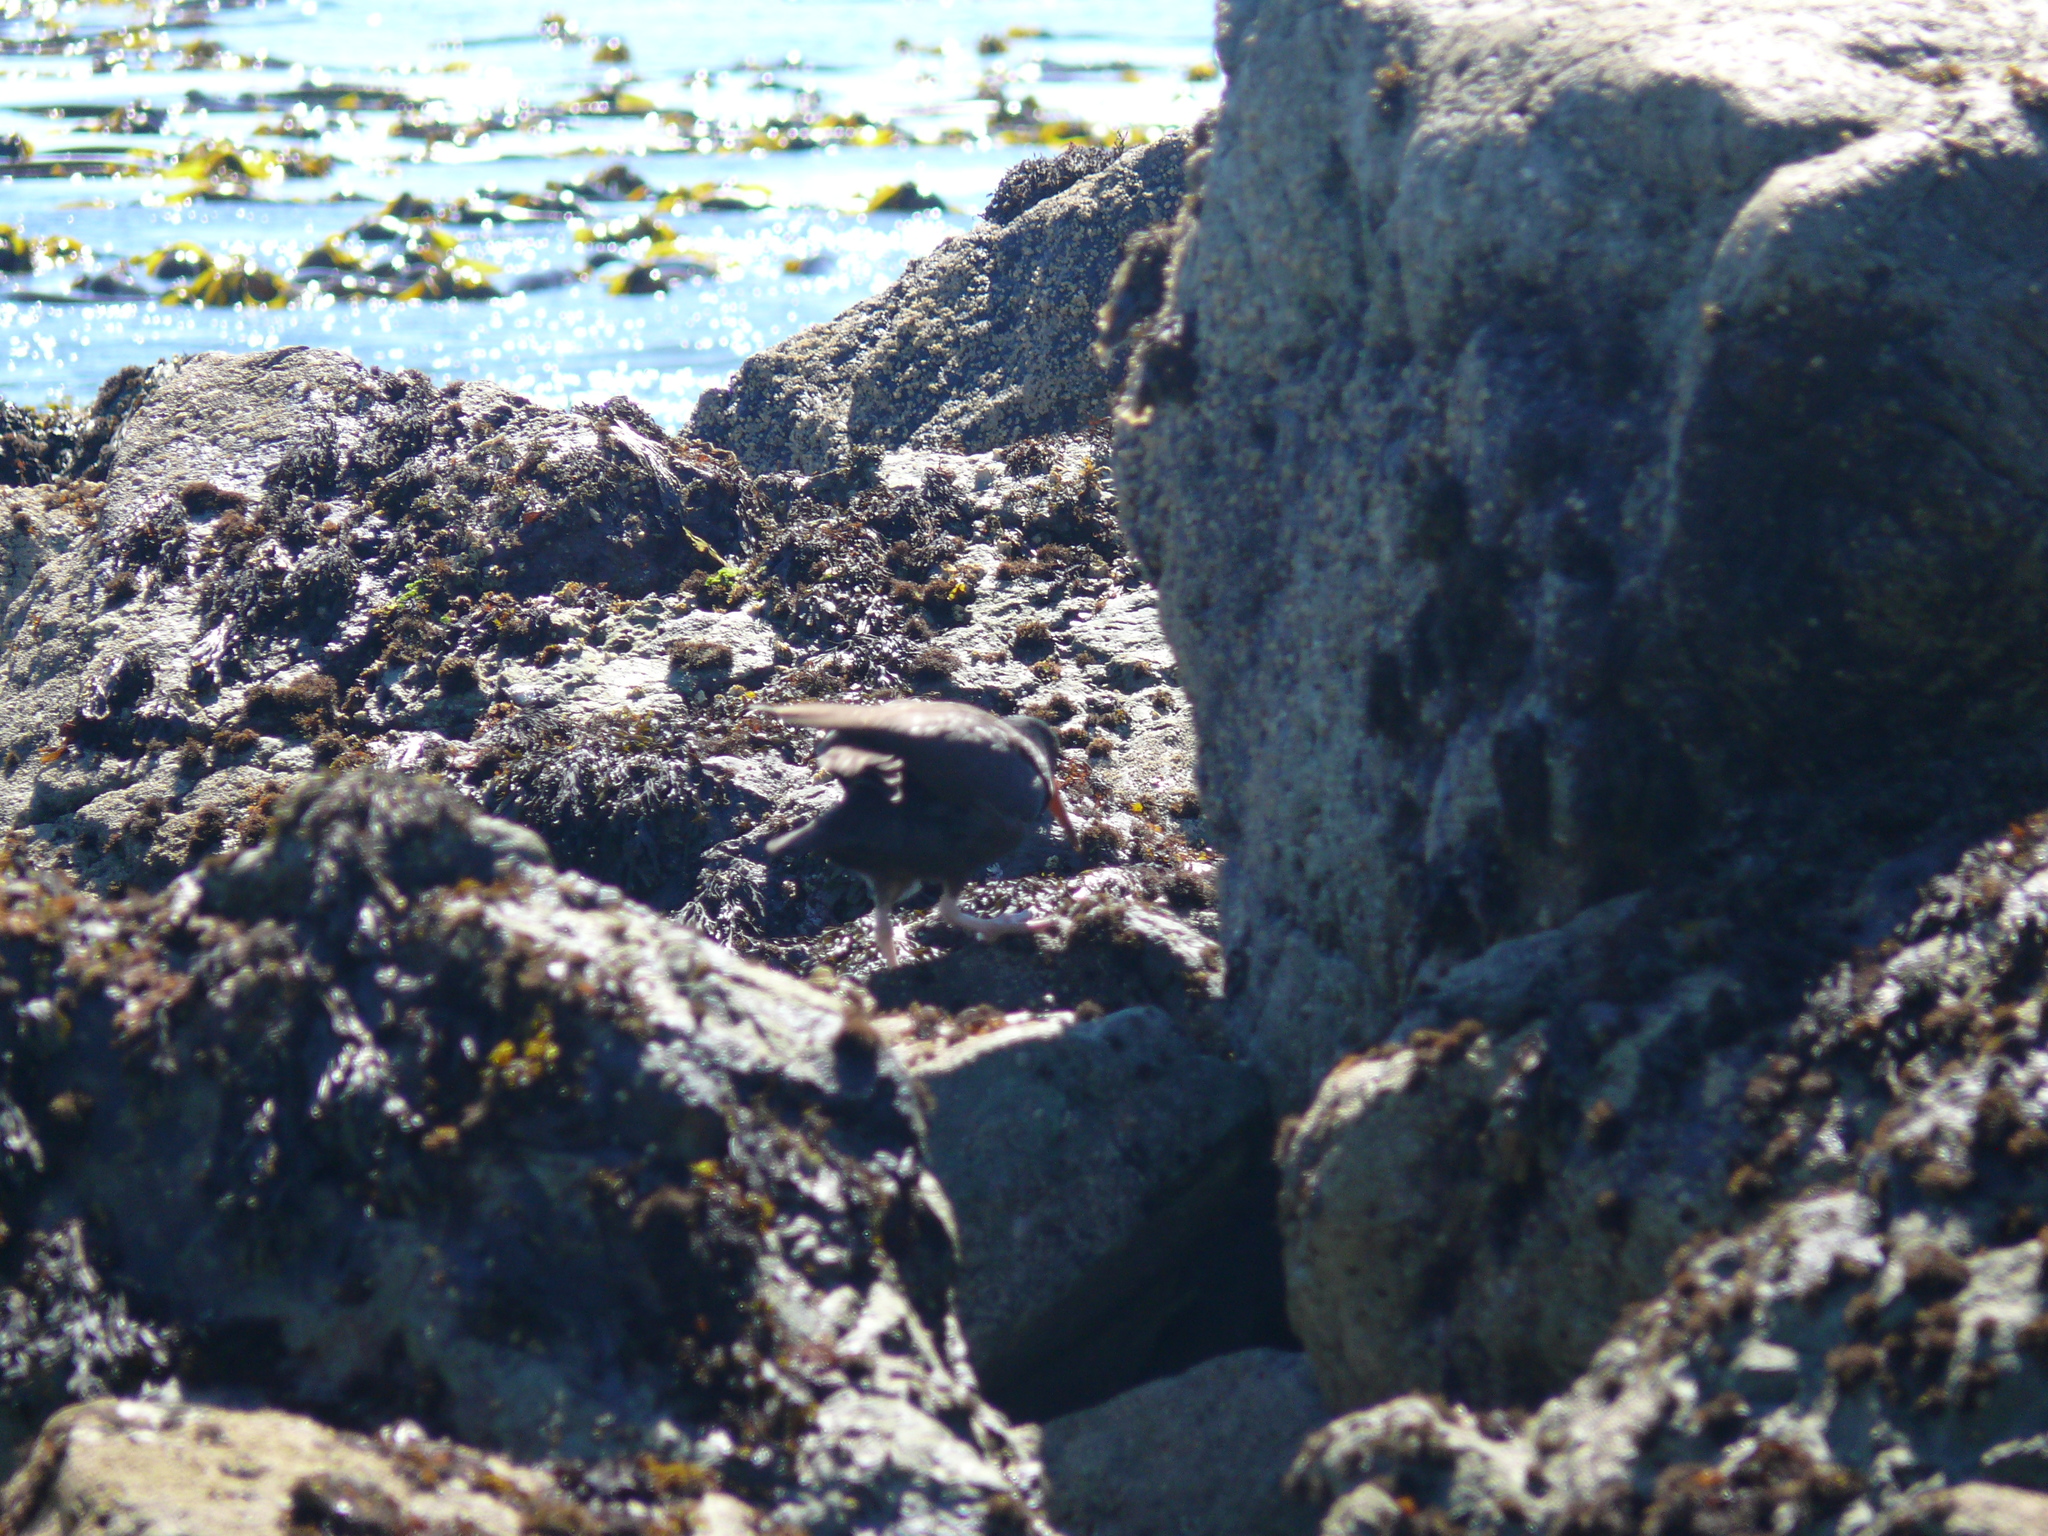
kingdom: Animalia
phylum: Chordata
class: Aves
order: Charadriiformes
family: Haematopodidae
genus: Haematopus
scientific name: Haematopus bachmani
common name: Black oystercatcher
